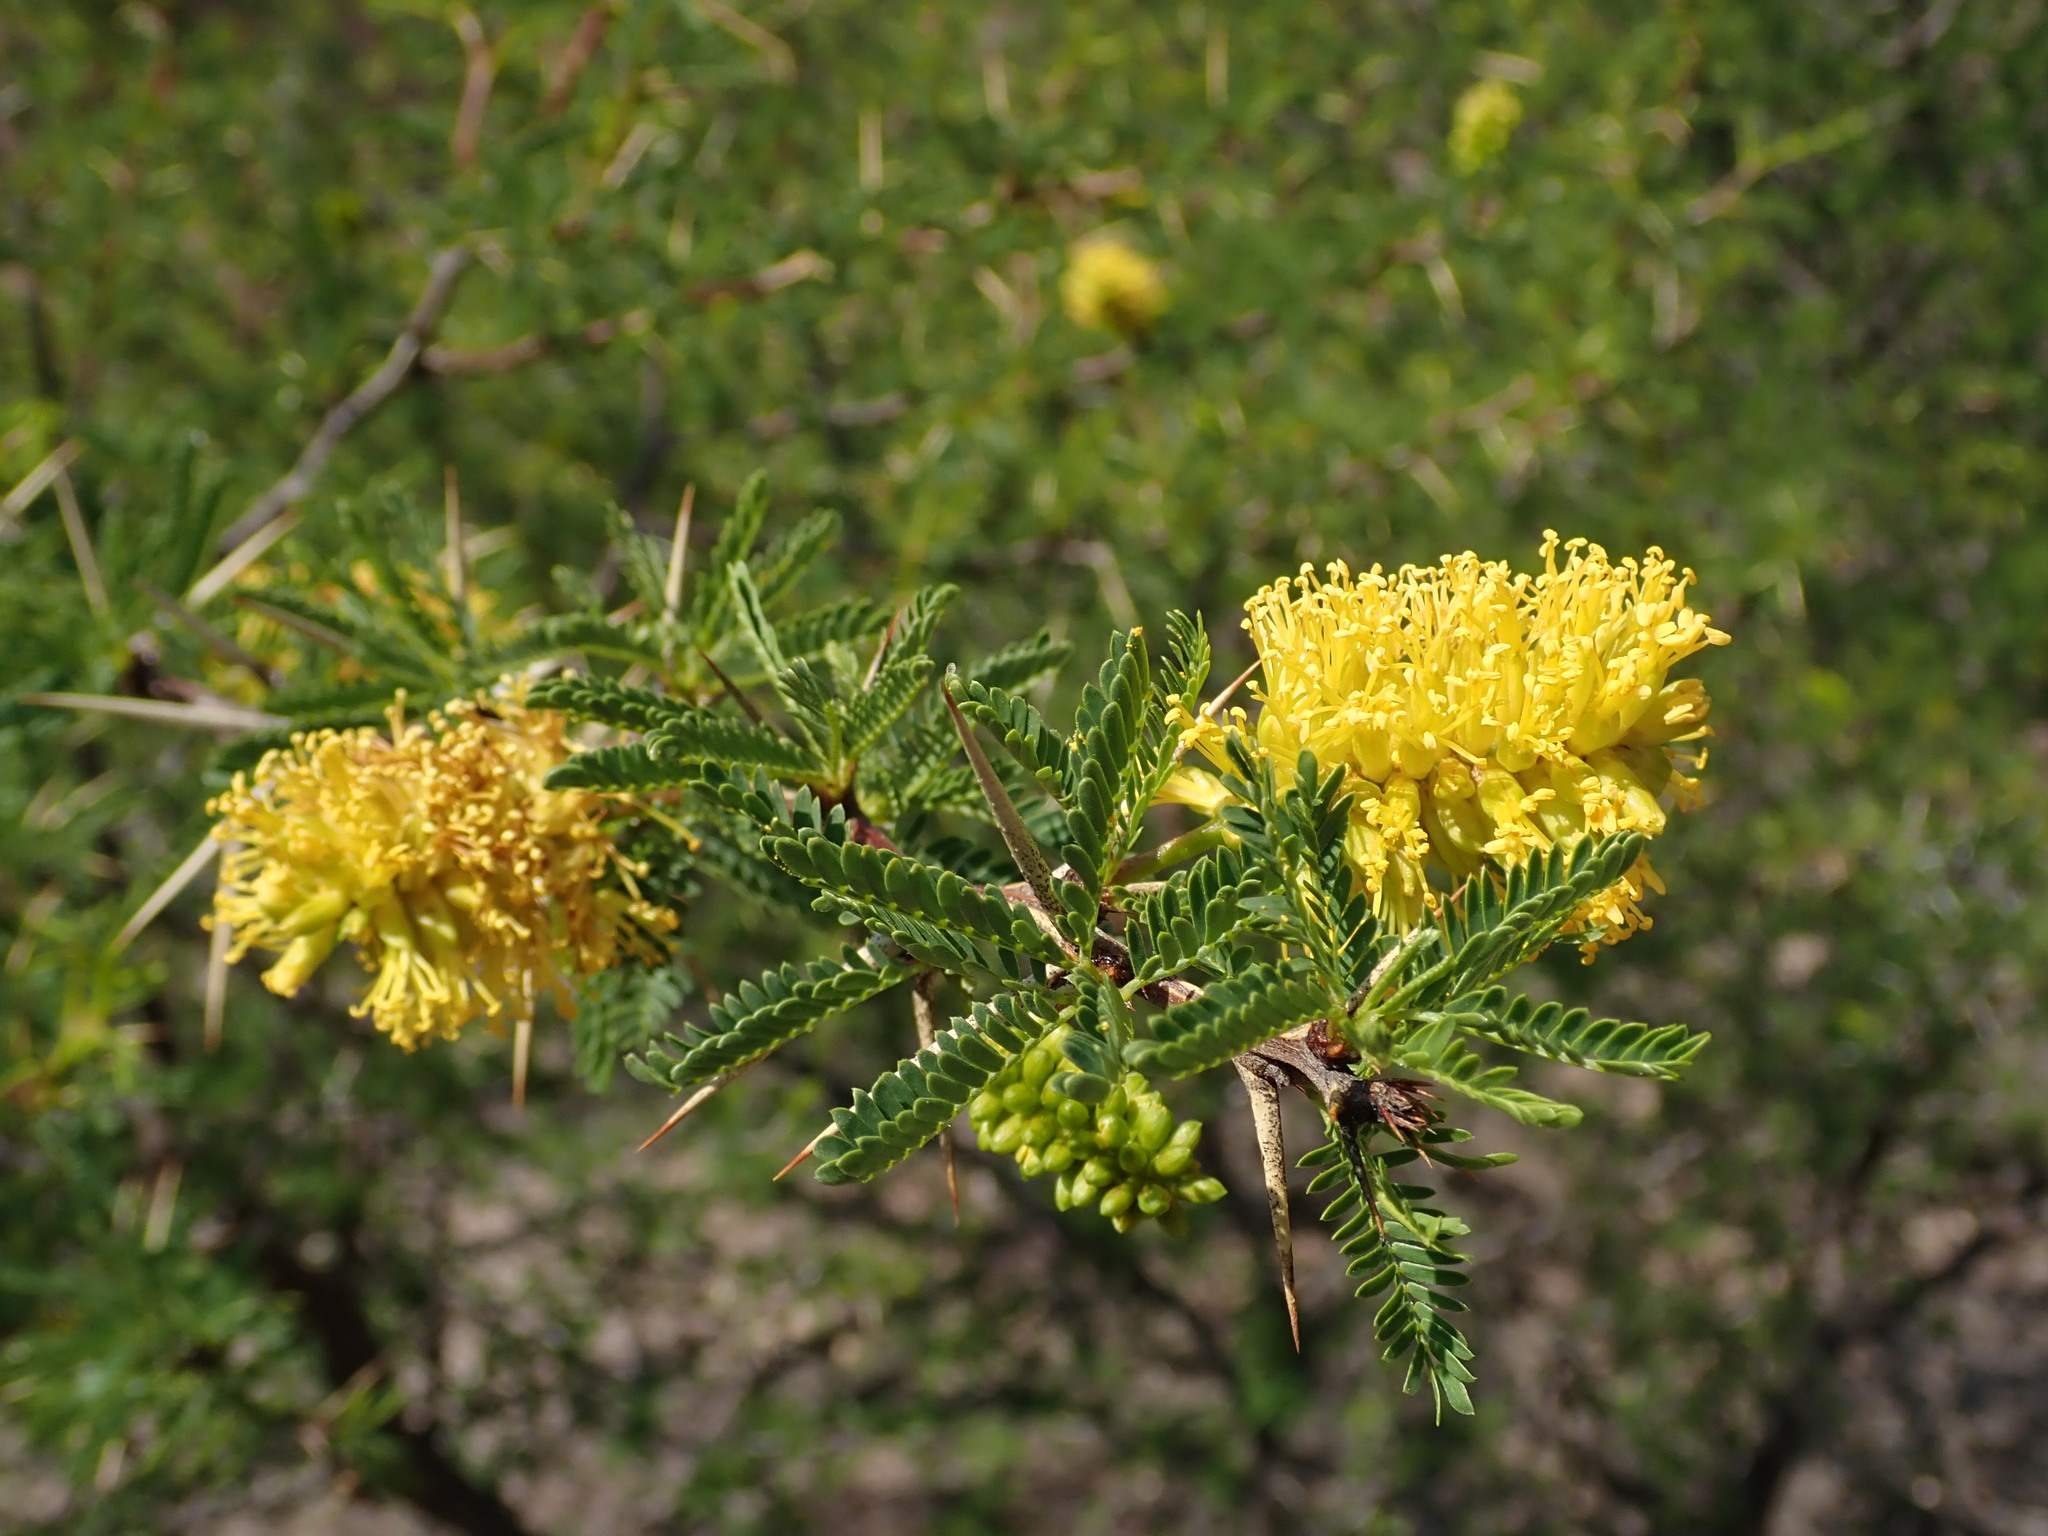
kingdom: Plantae
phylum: Tracheophyta
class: Magnoliopsida
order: Fabales
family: Fabaceae
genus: Prosopis
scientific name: Prosopis ferox
